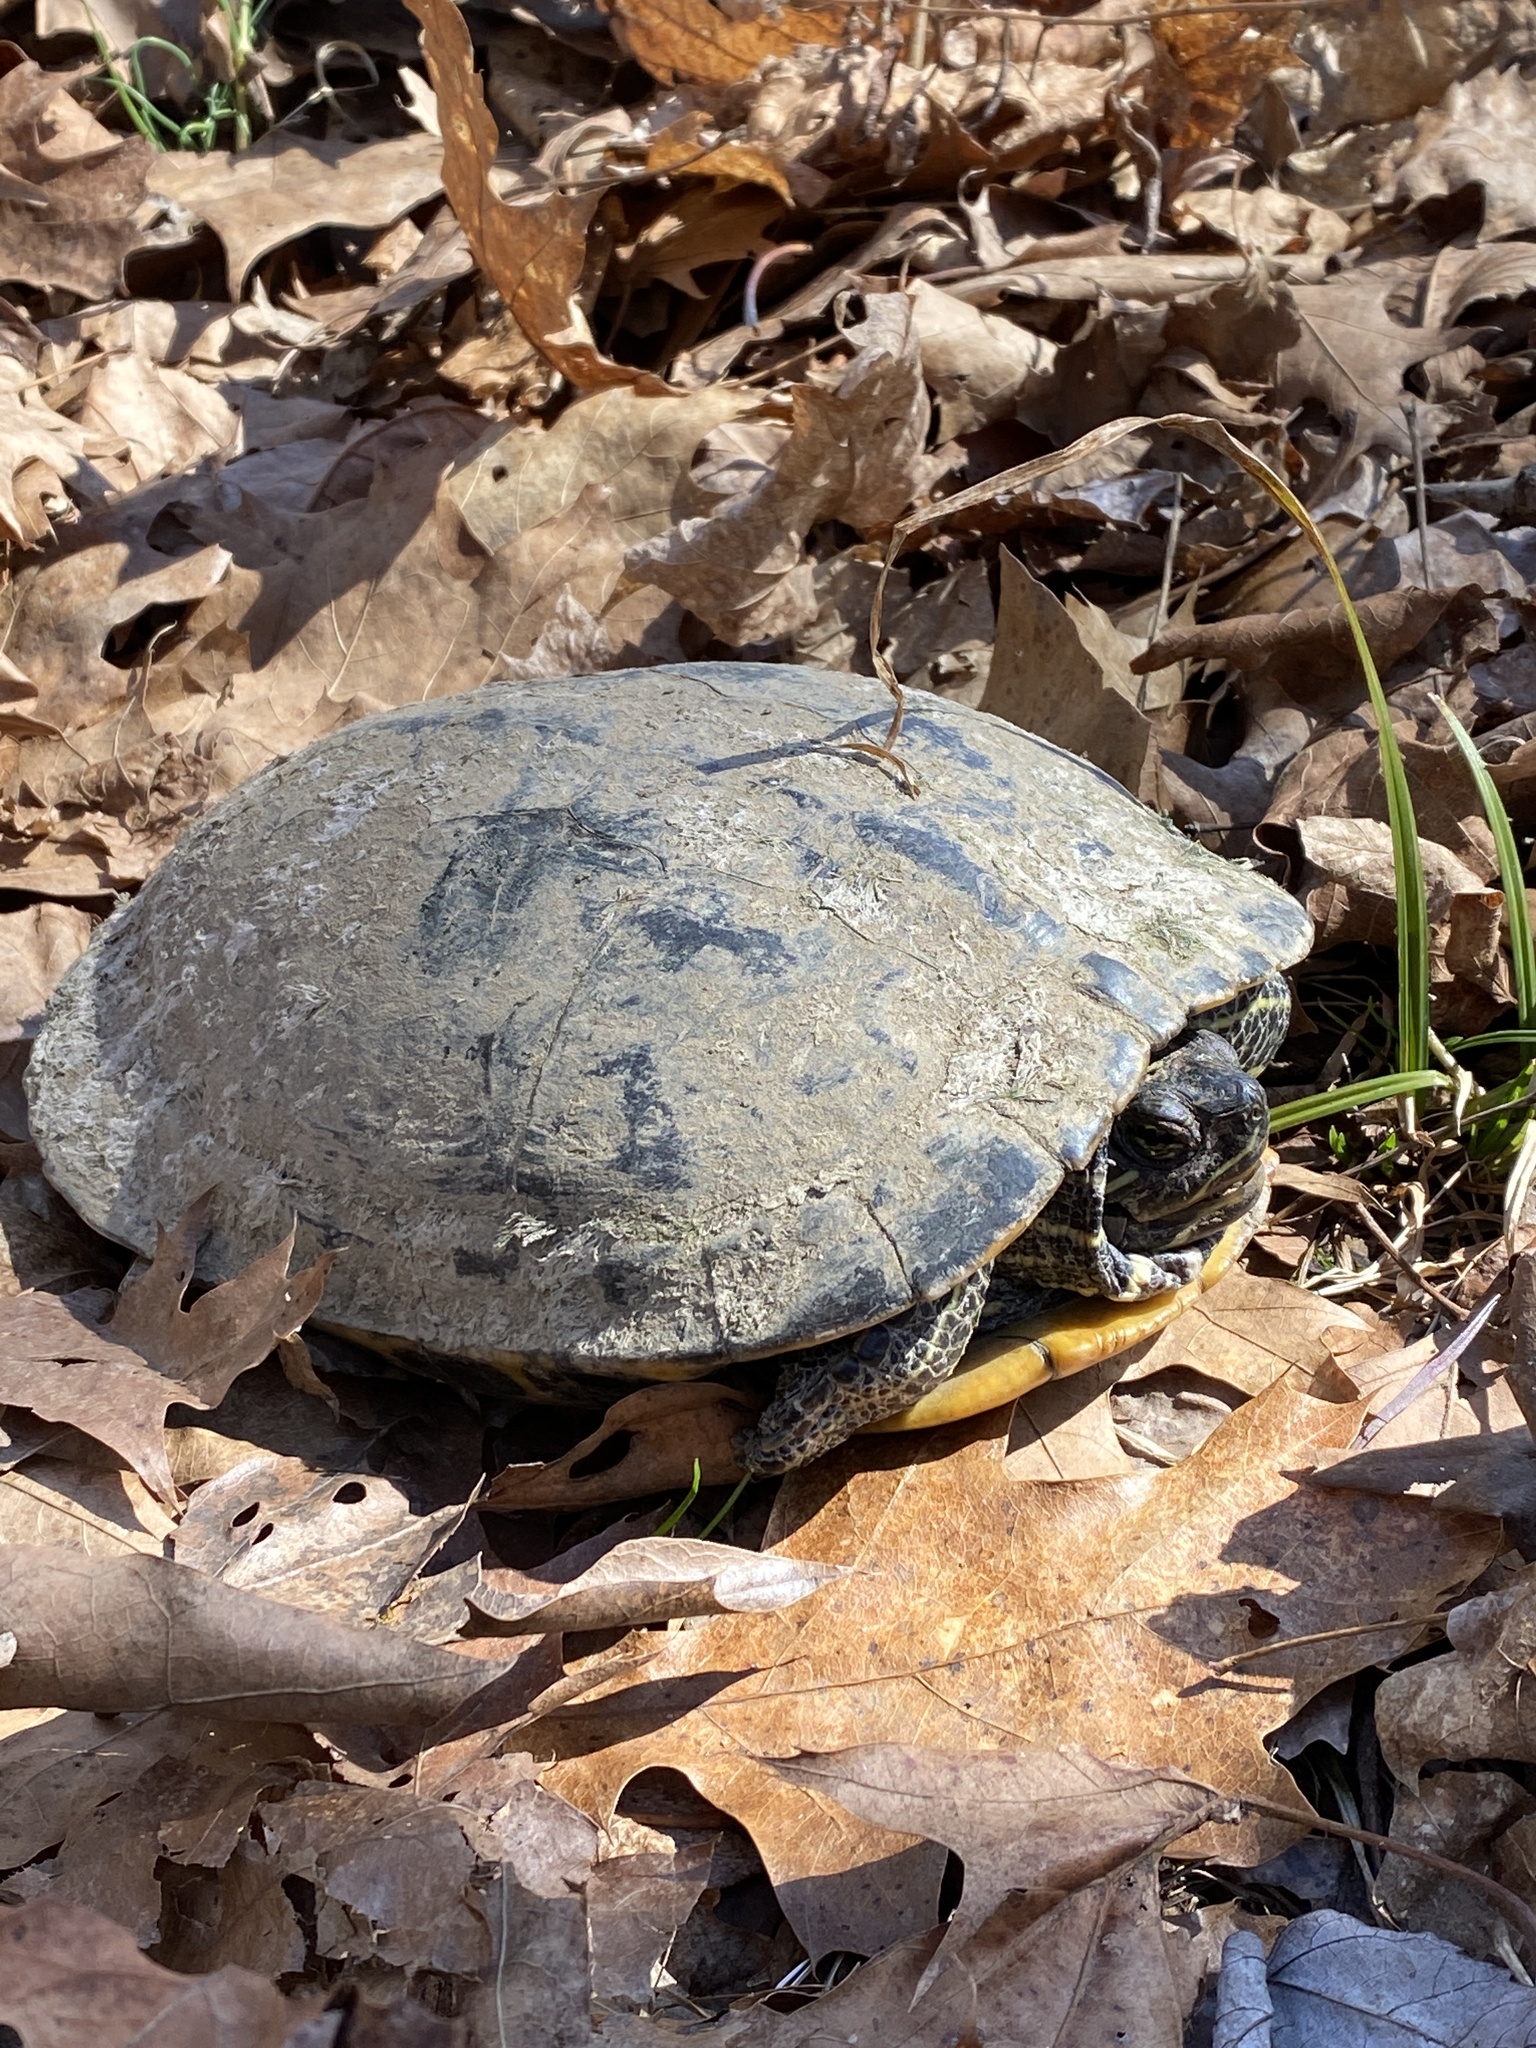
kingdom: Animalia
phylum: Chordata
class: Testudines
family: Emydidae
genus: Trachemys
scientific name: Trachemys scripta
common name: Slider
